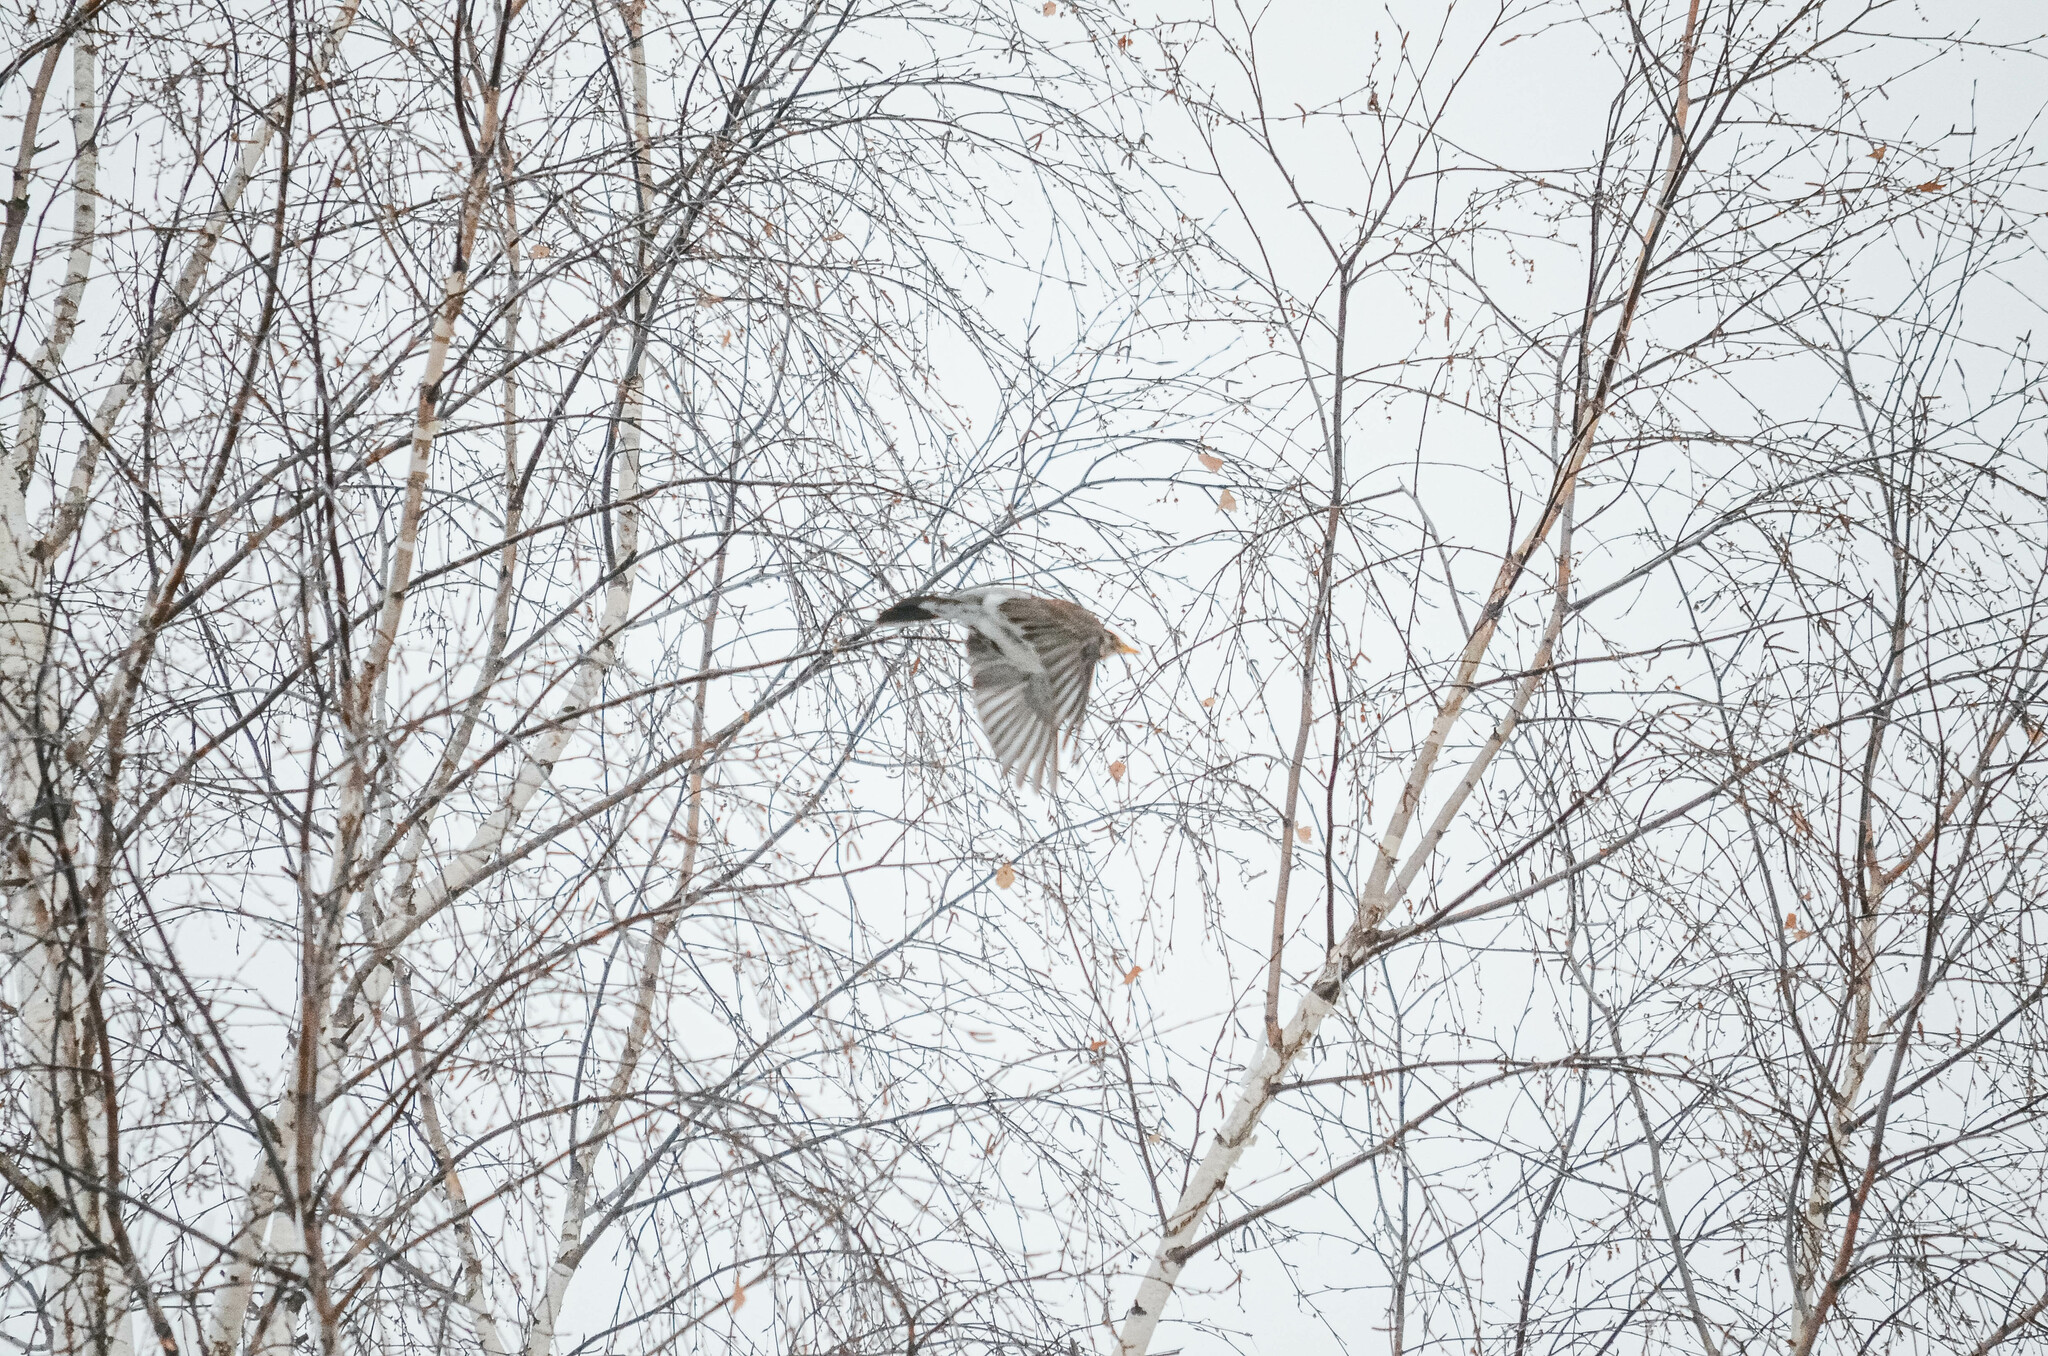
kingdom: Animalia
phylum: Chordata
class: Aves
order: Passeriformes
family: Turdidae
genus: Turdus
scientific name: Turdus pilaris
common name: Fieldfare
